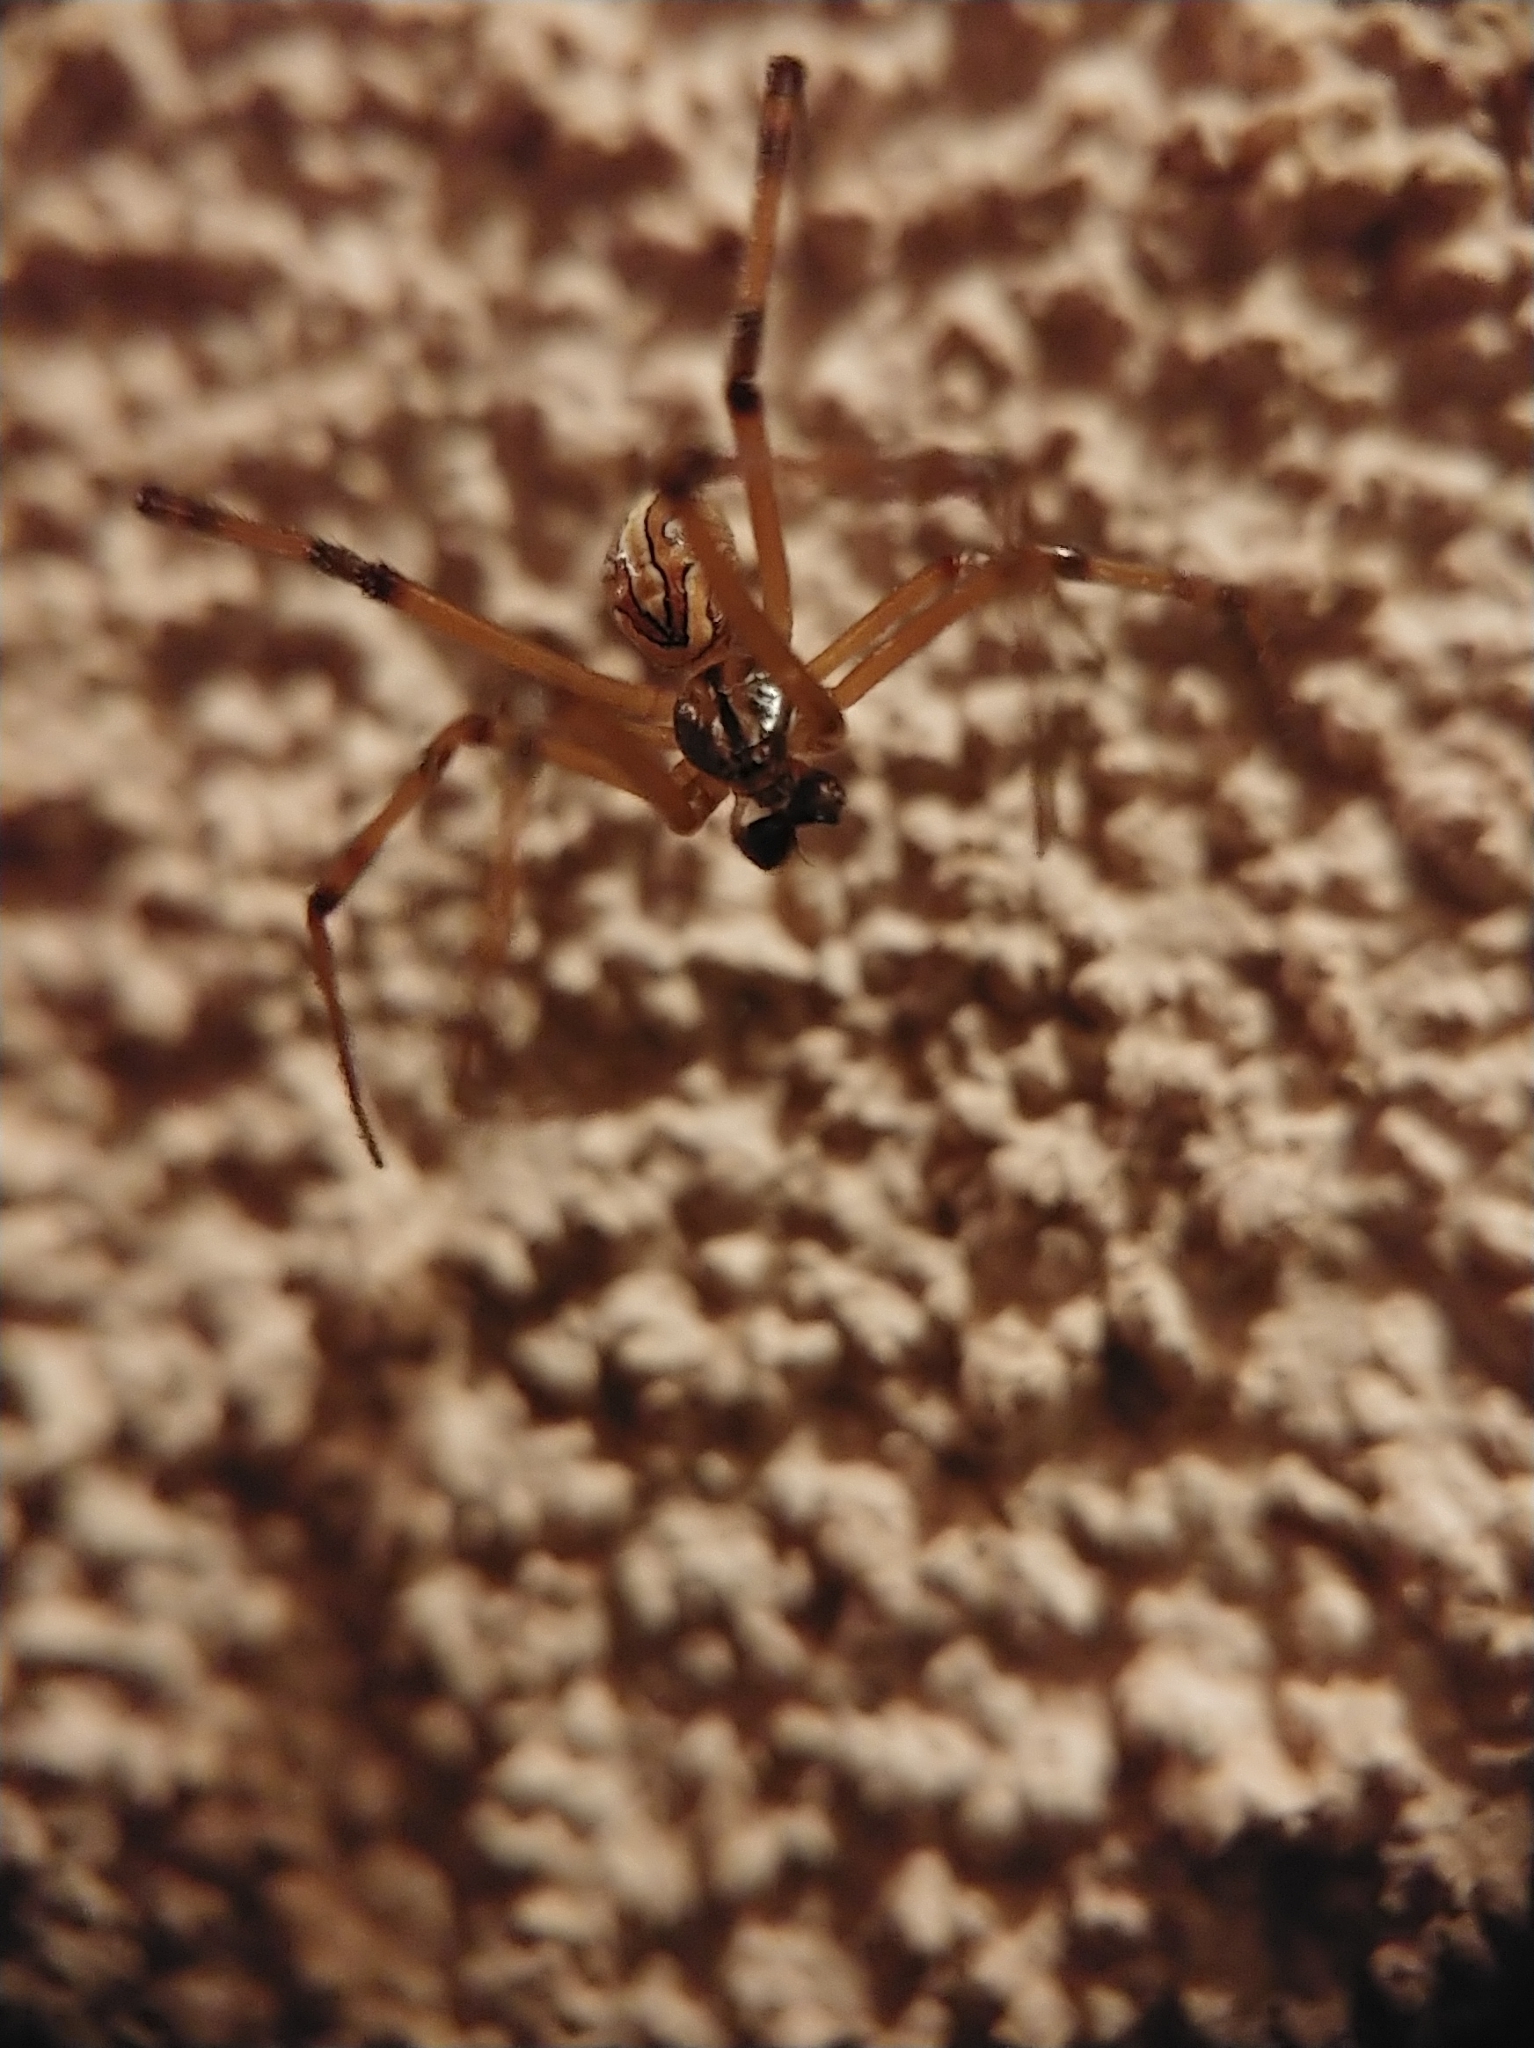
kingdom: Animalia
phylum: Arthropoda
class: Arachnida
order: Araneae
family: Theridiidae
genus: Latrodectus
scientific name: Latrodectus hesperus
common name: Western black widow
